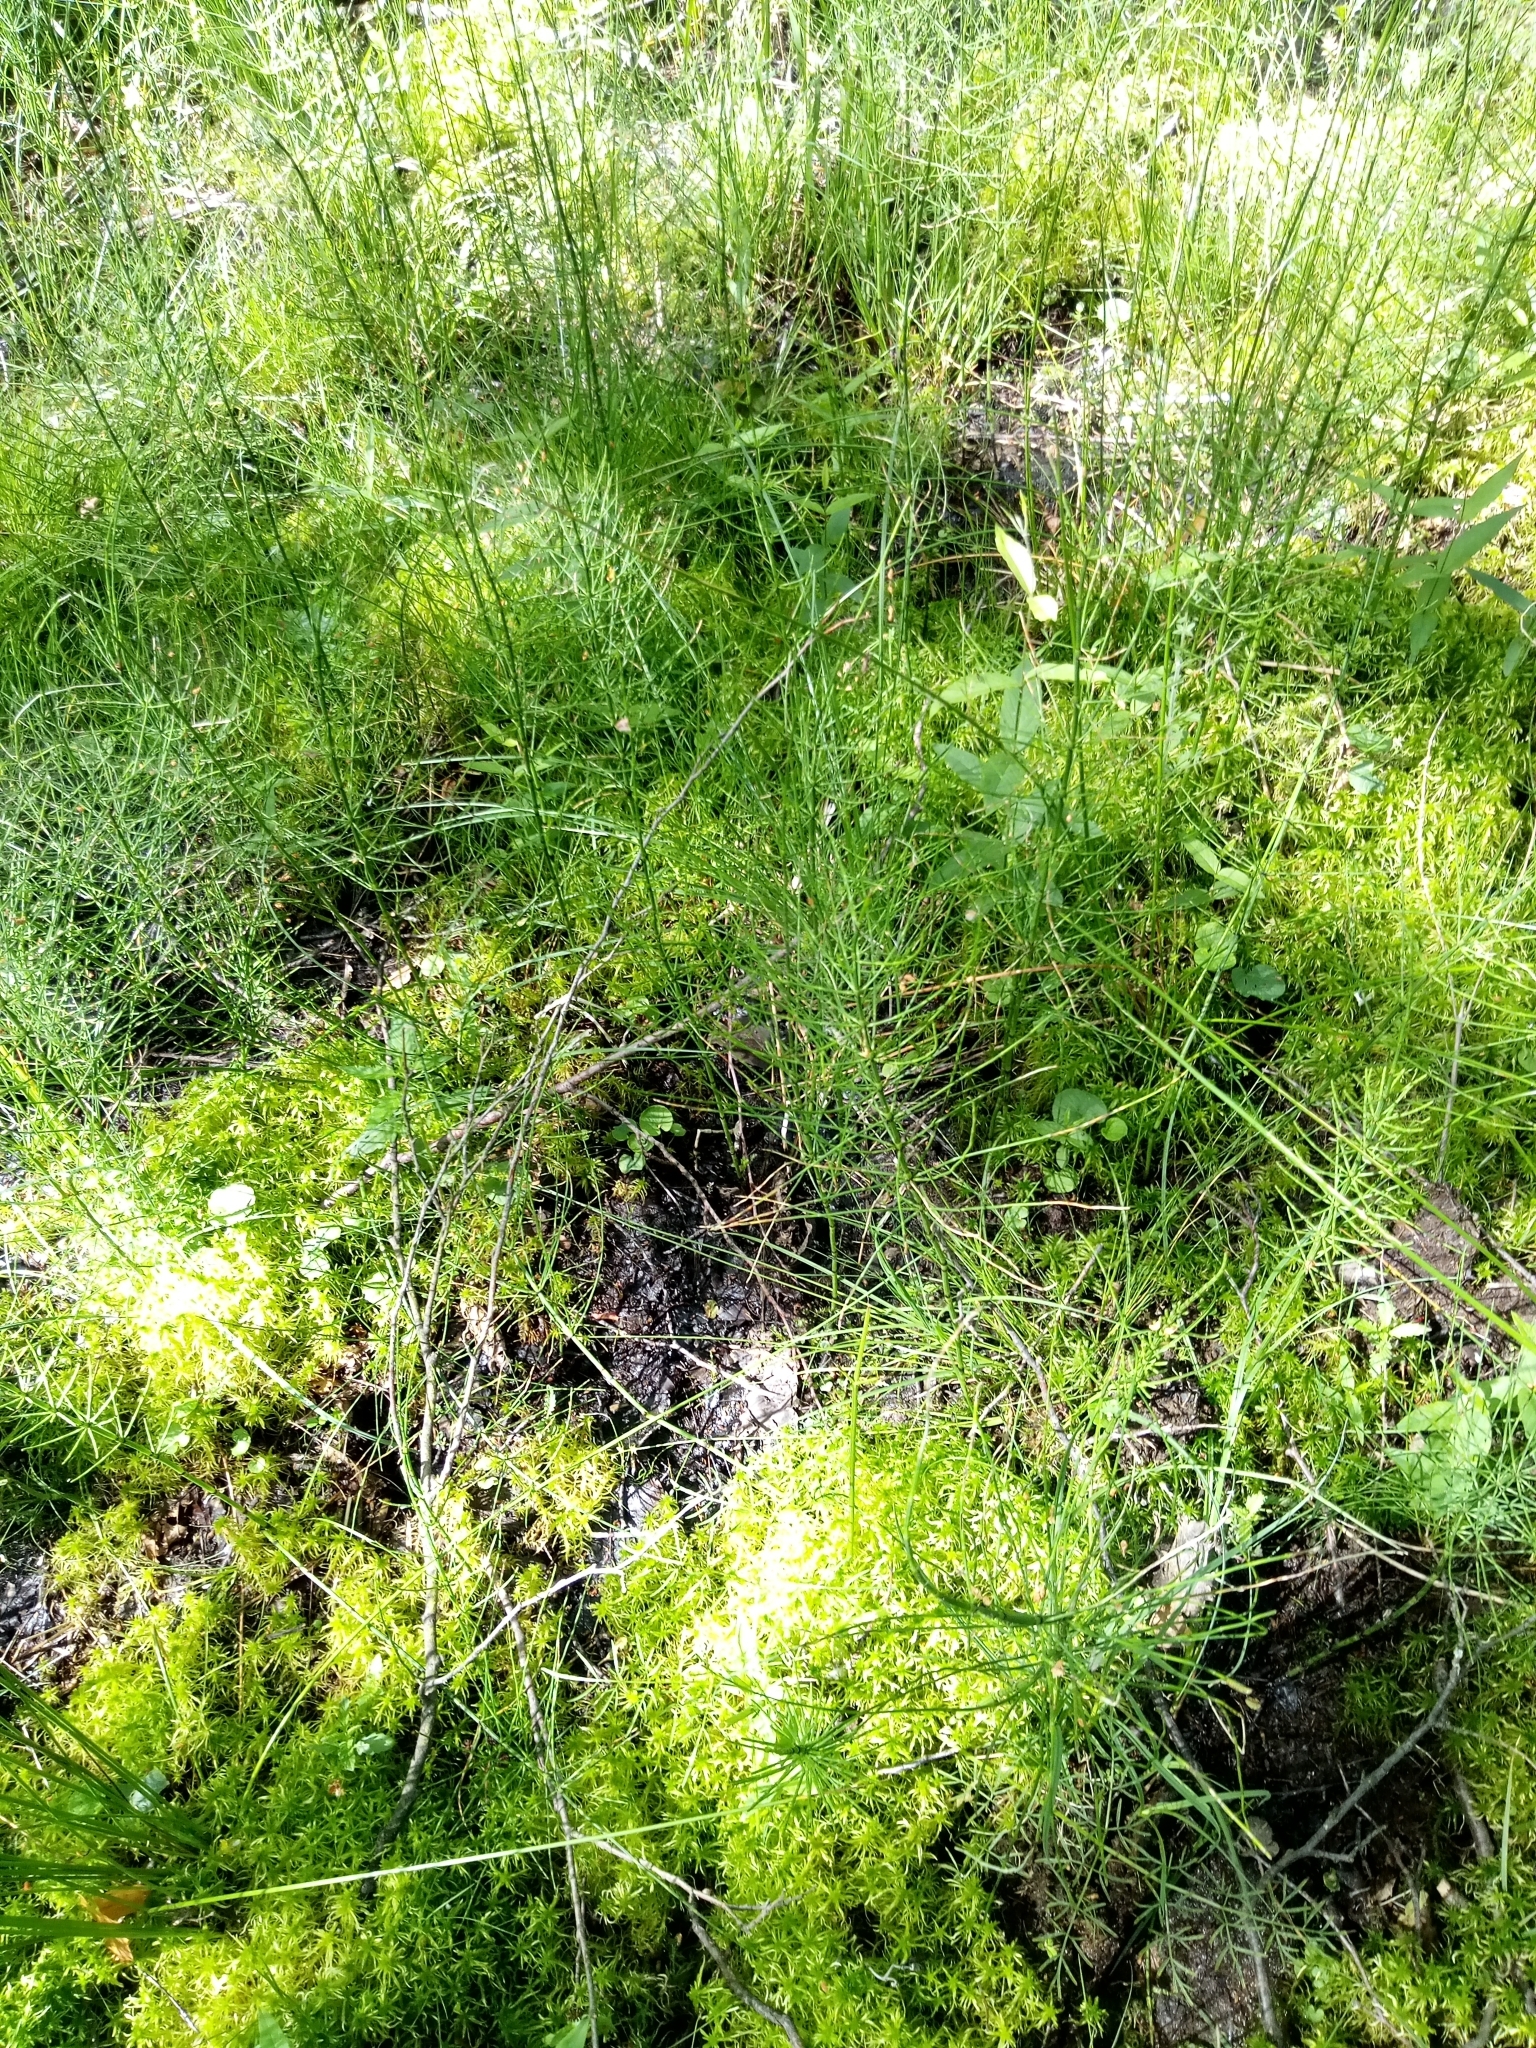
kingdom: Plantae
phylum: Tracheophyta
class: Polypodiopsida
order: Equisetales
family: Equisetaceae
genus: Equisetum
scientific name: Equisetum palustre
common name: Marsh horsetail
